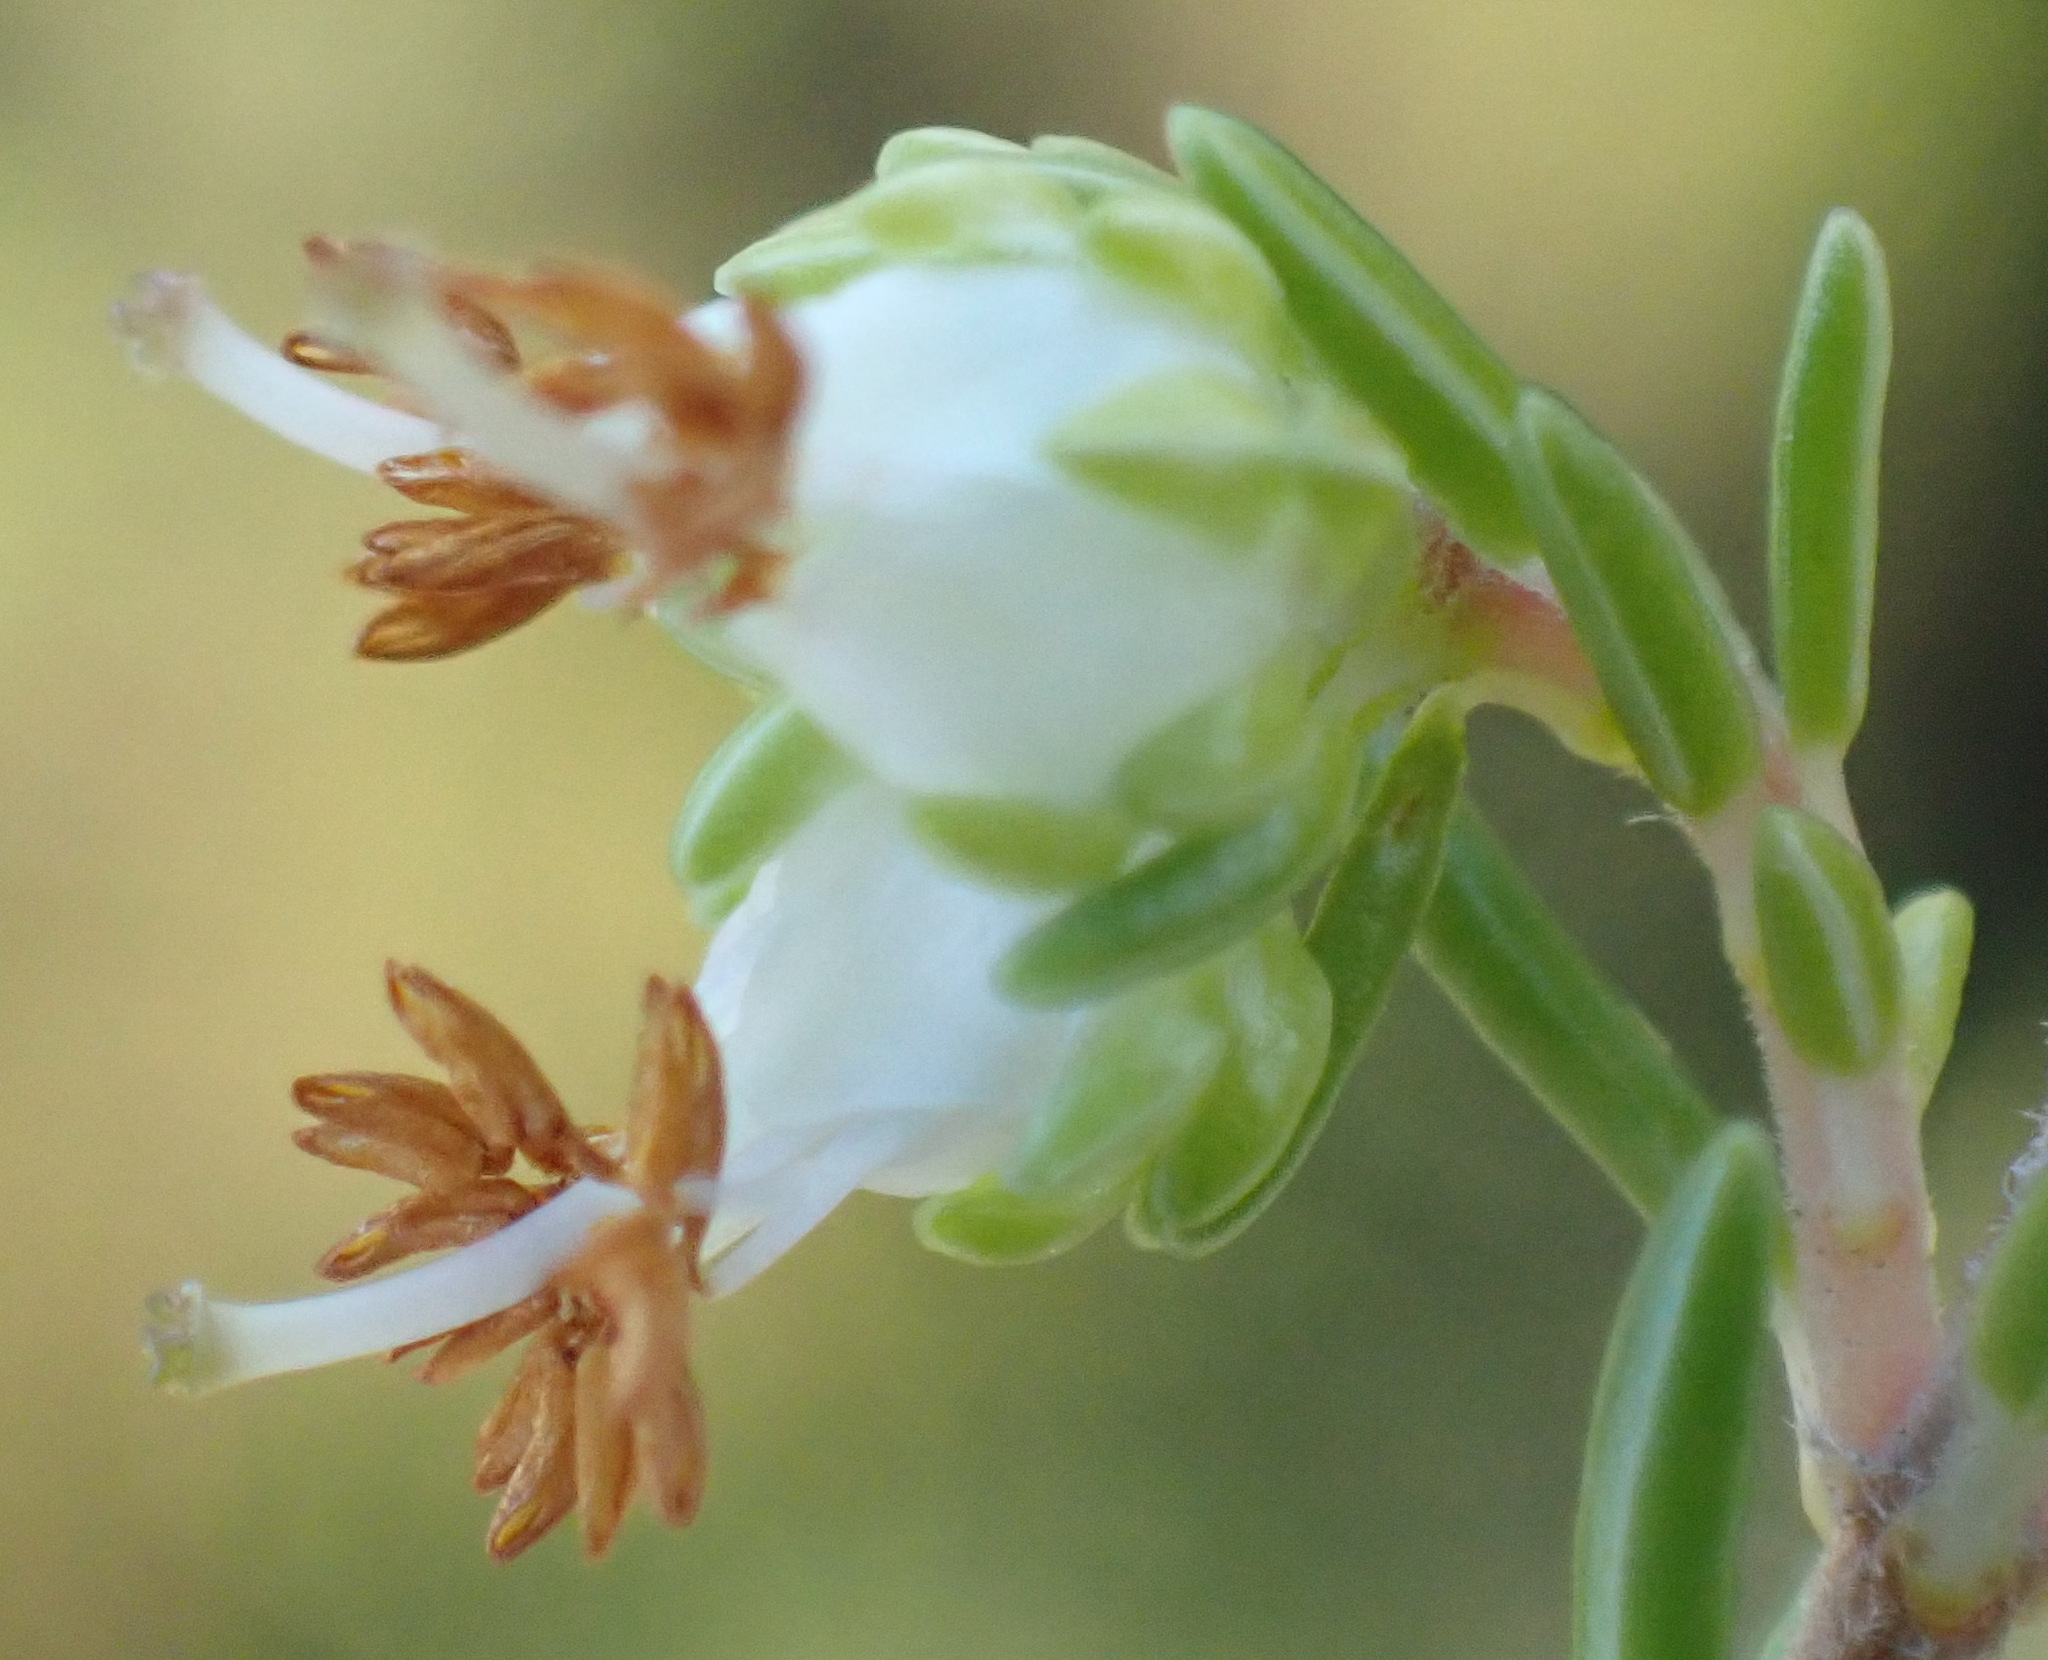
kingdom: Plantae
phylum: Tracheophyta
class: Magnoliopsida
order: Ericales
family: Ericaceae
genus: Erica
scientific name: Erica glumiflora
